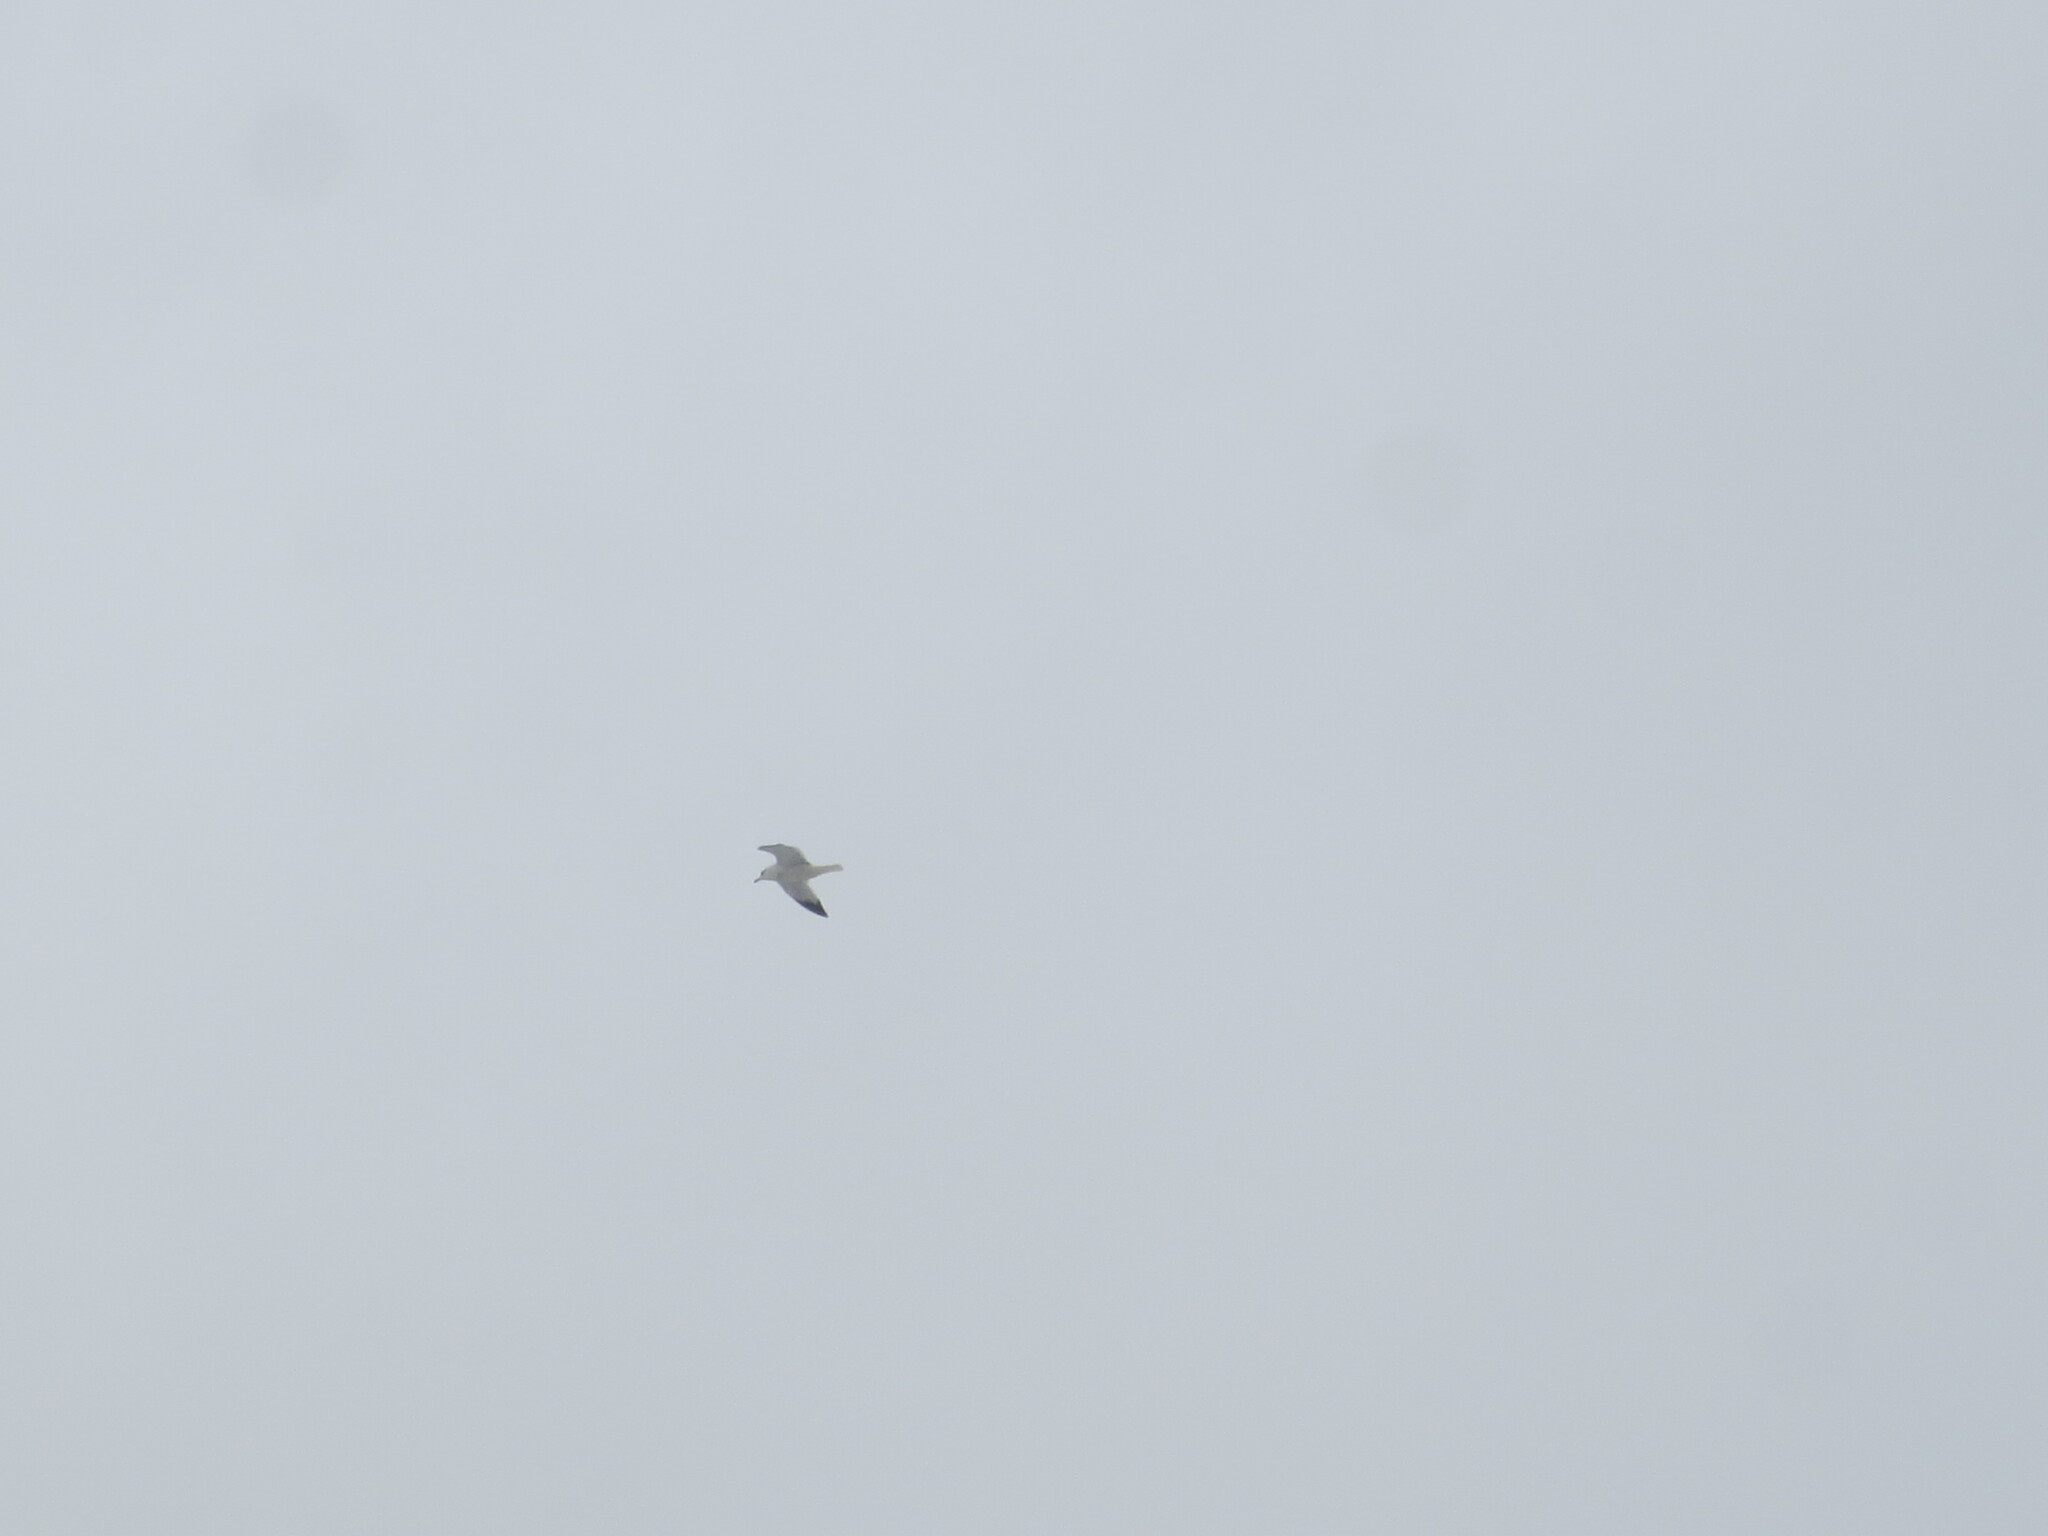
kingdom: Animalia
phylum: Chordata
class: Aves
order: Charadriiformes
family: Laridae
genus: Larus
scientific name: Larus delawarensis
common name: Ring-billed gull
